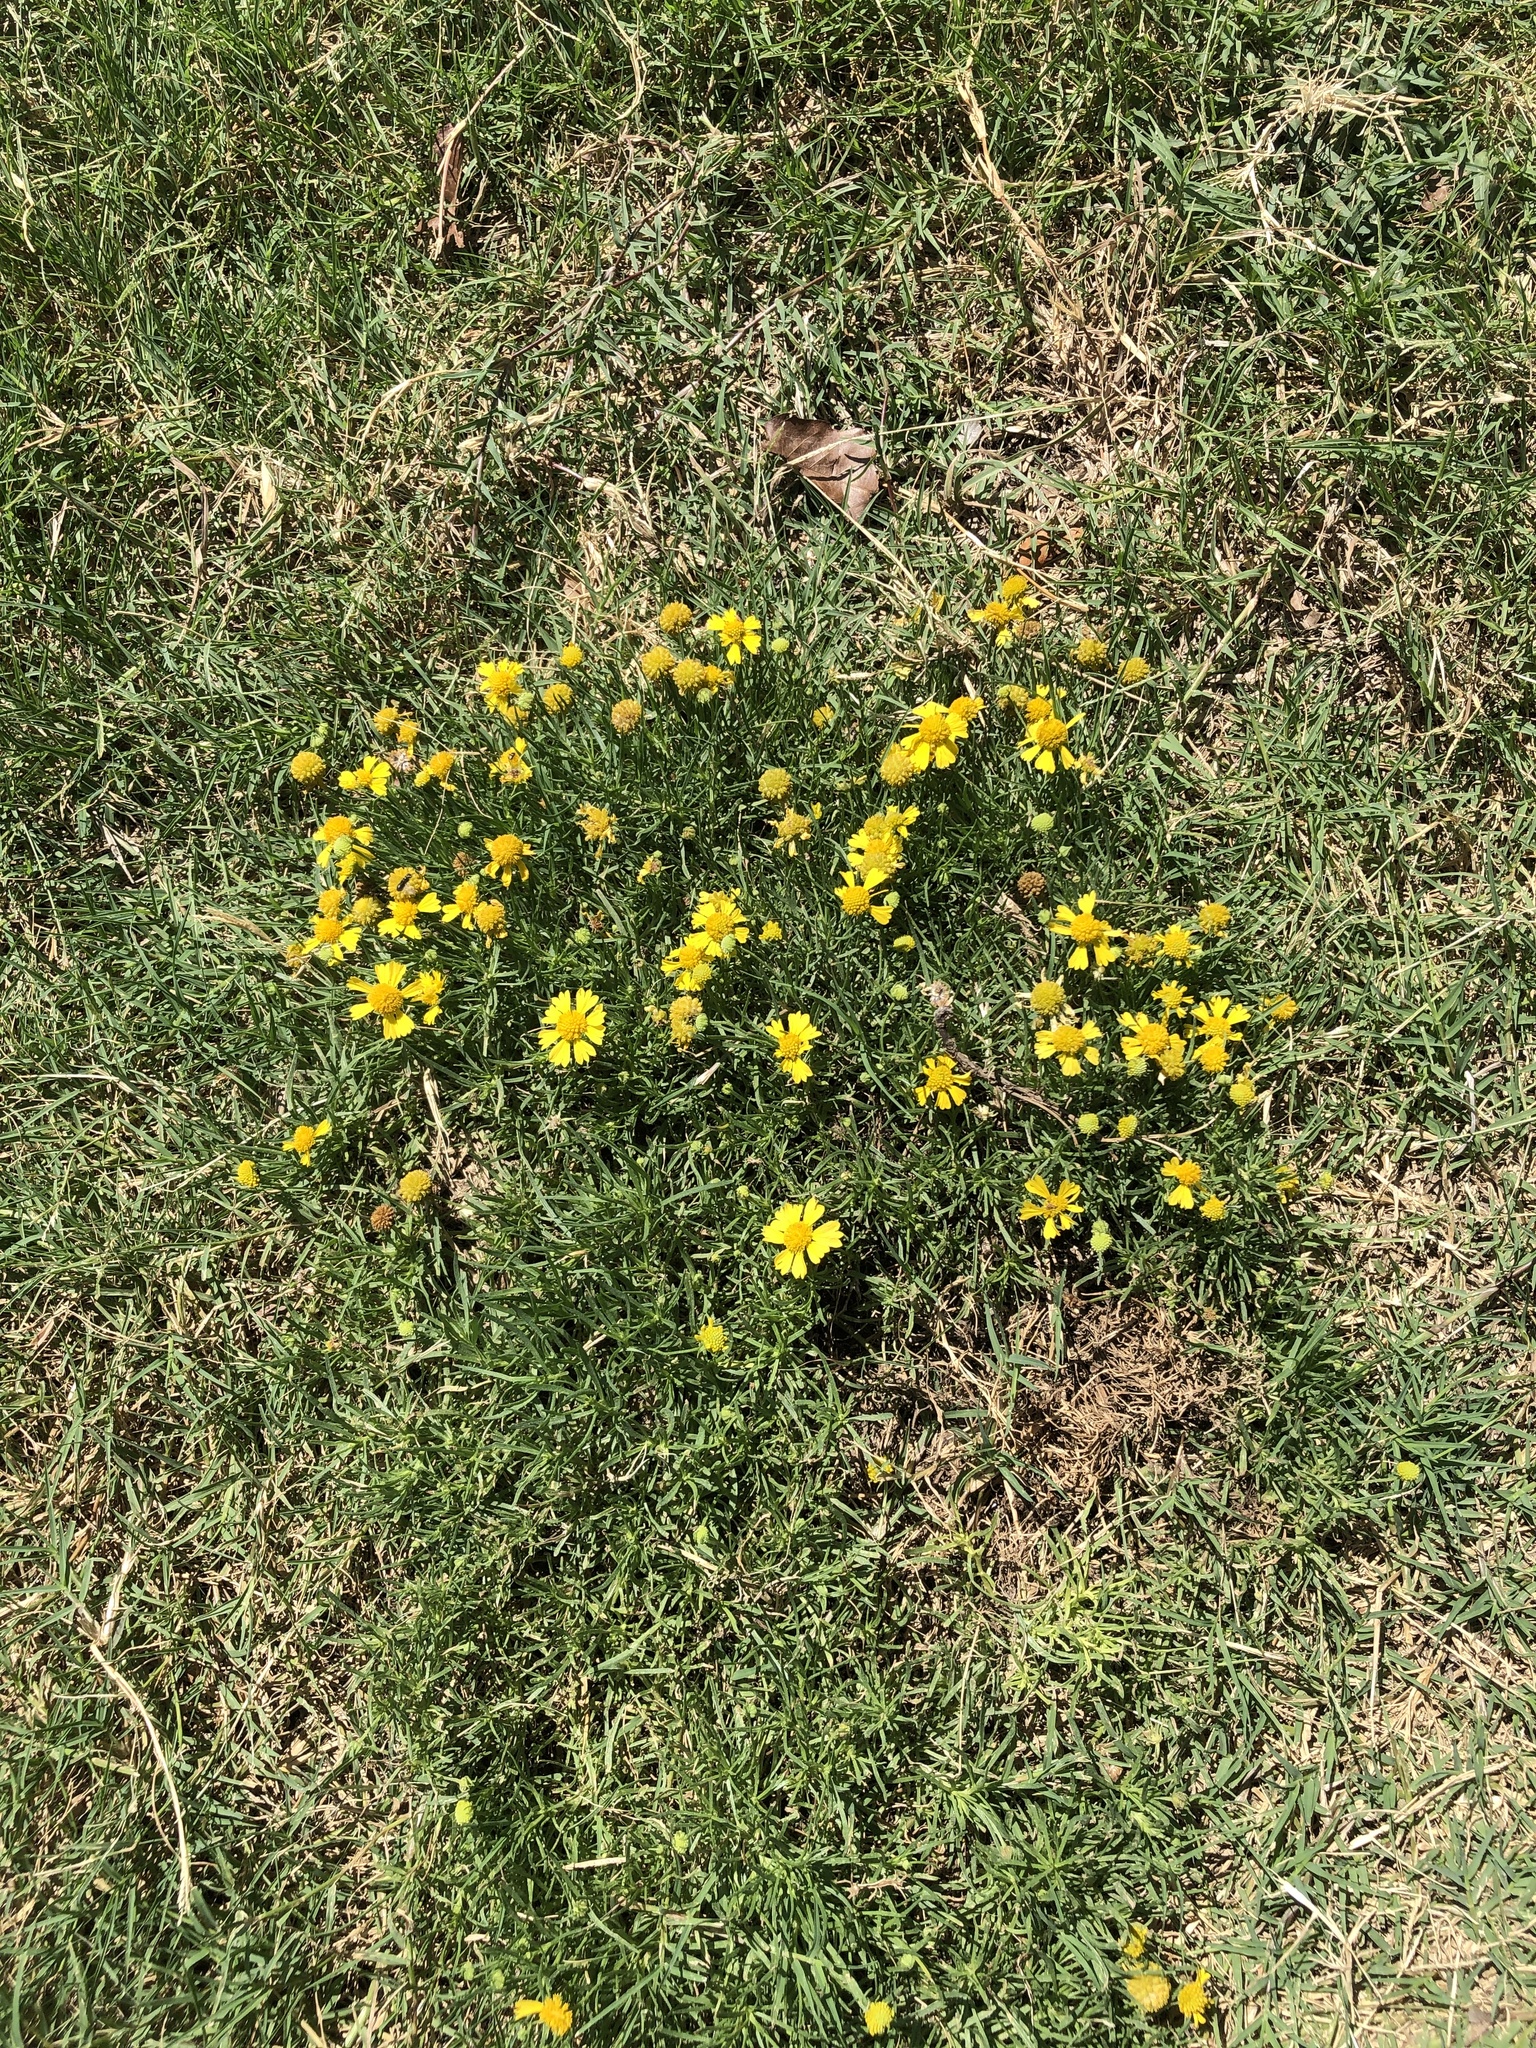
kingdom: Plantae
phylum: Tracheophyta
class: Magnoliopsida
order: Asterales
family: Asteraceae
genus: Helenium
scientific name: Helenium amarum
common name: Bitter sneezeweed
